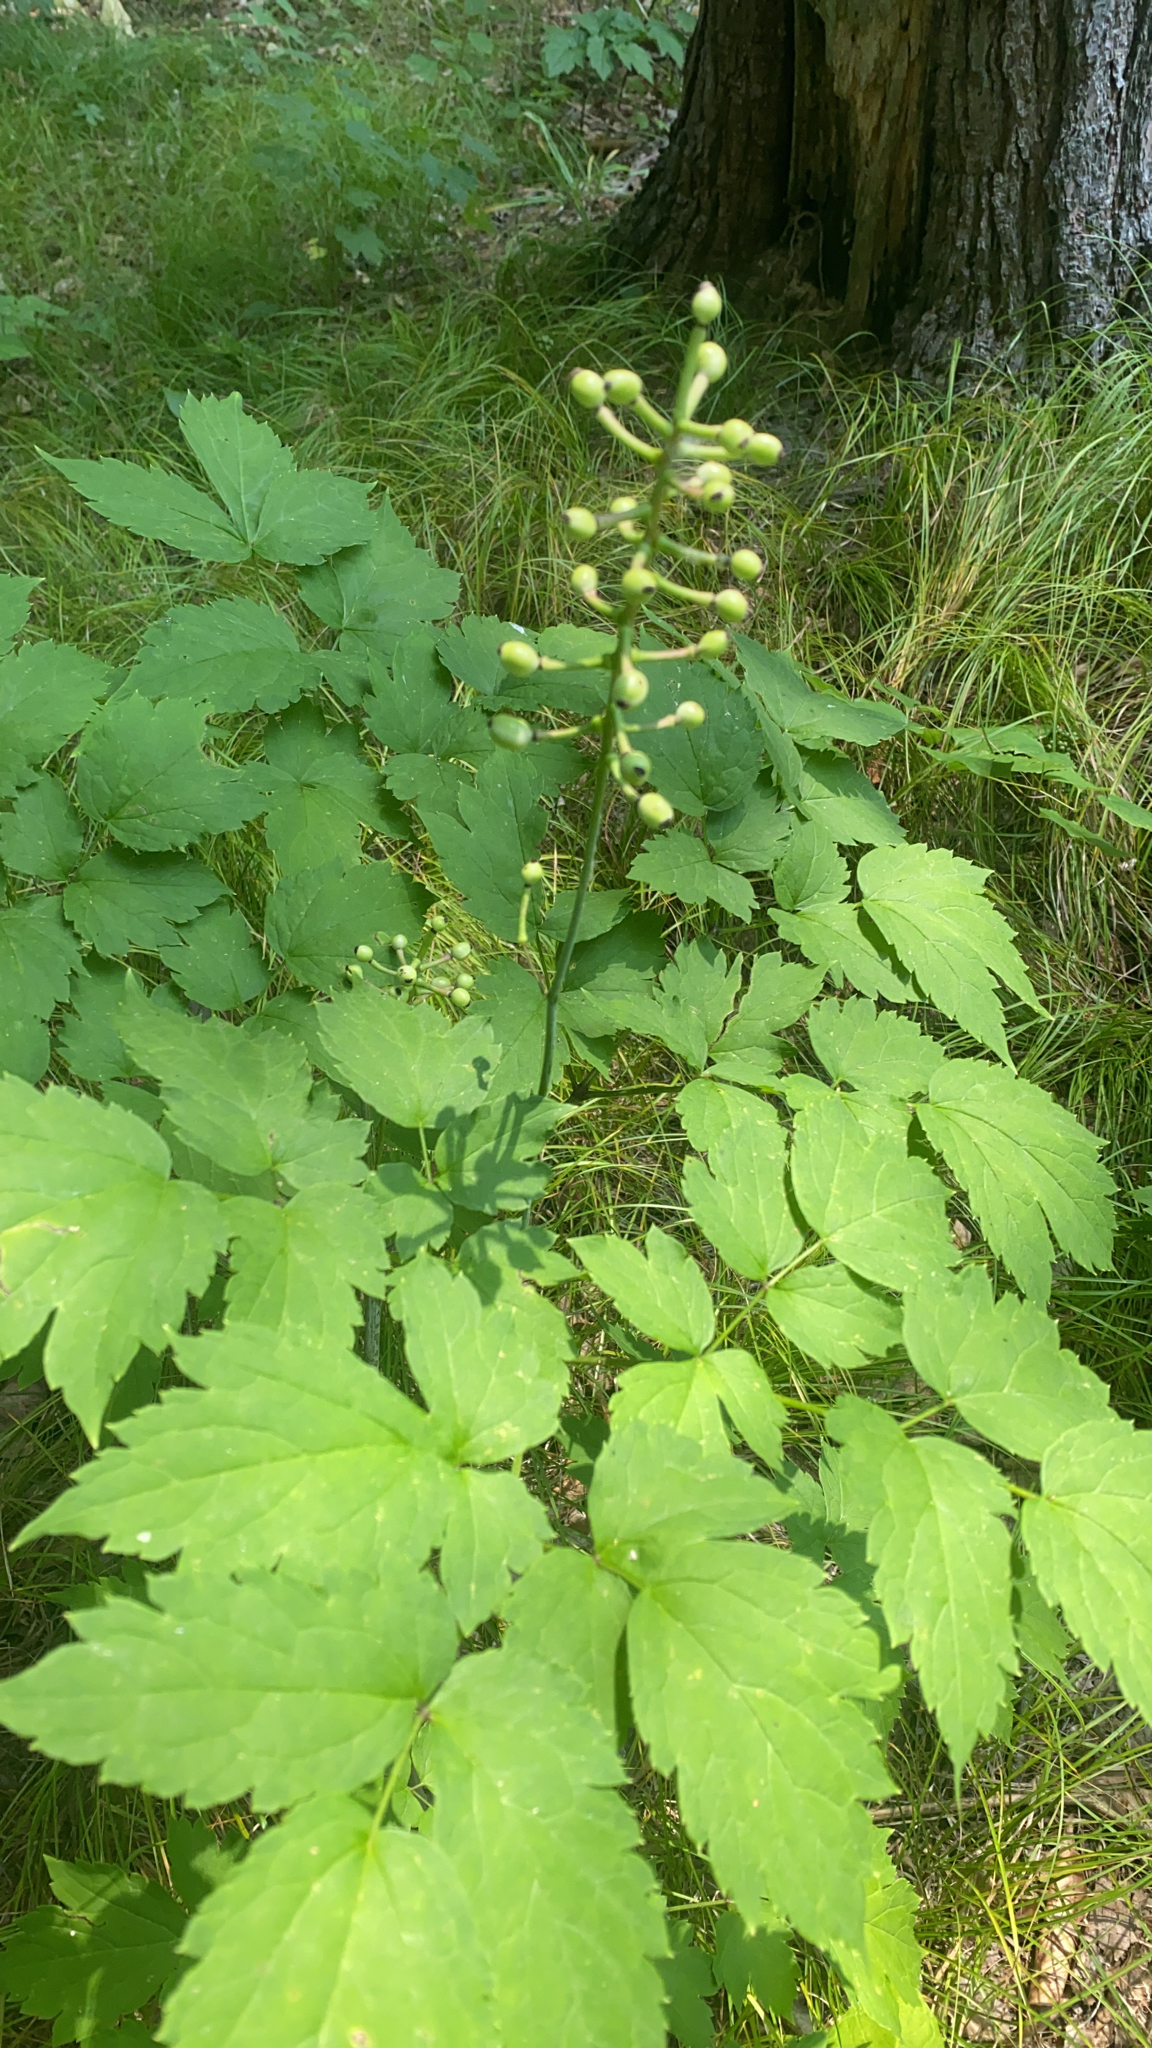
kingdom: Plantae
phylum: Tracheophyta
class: Magnoliopsida
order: Ranunculales
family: Ranunculaceae
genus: Actaea
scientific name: Actaea pachypoda
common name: Doll's-eyes
